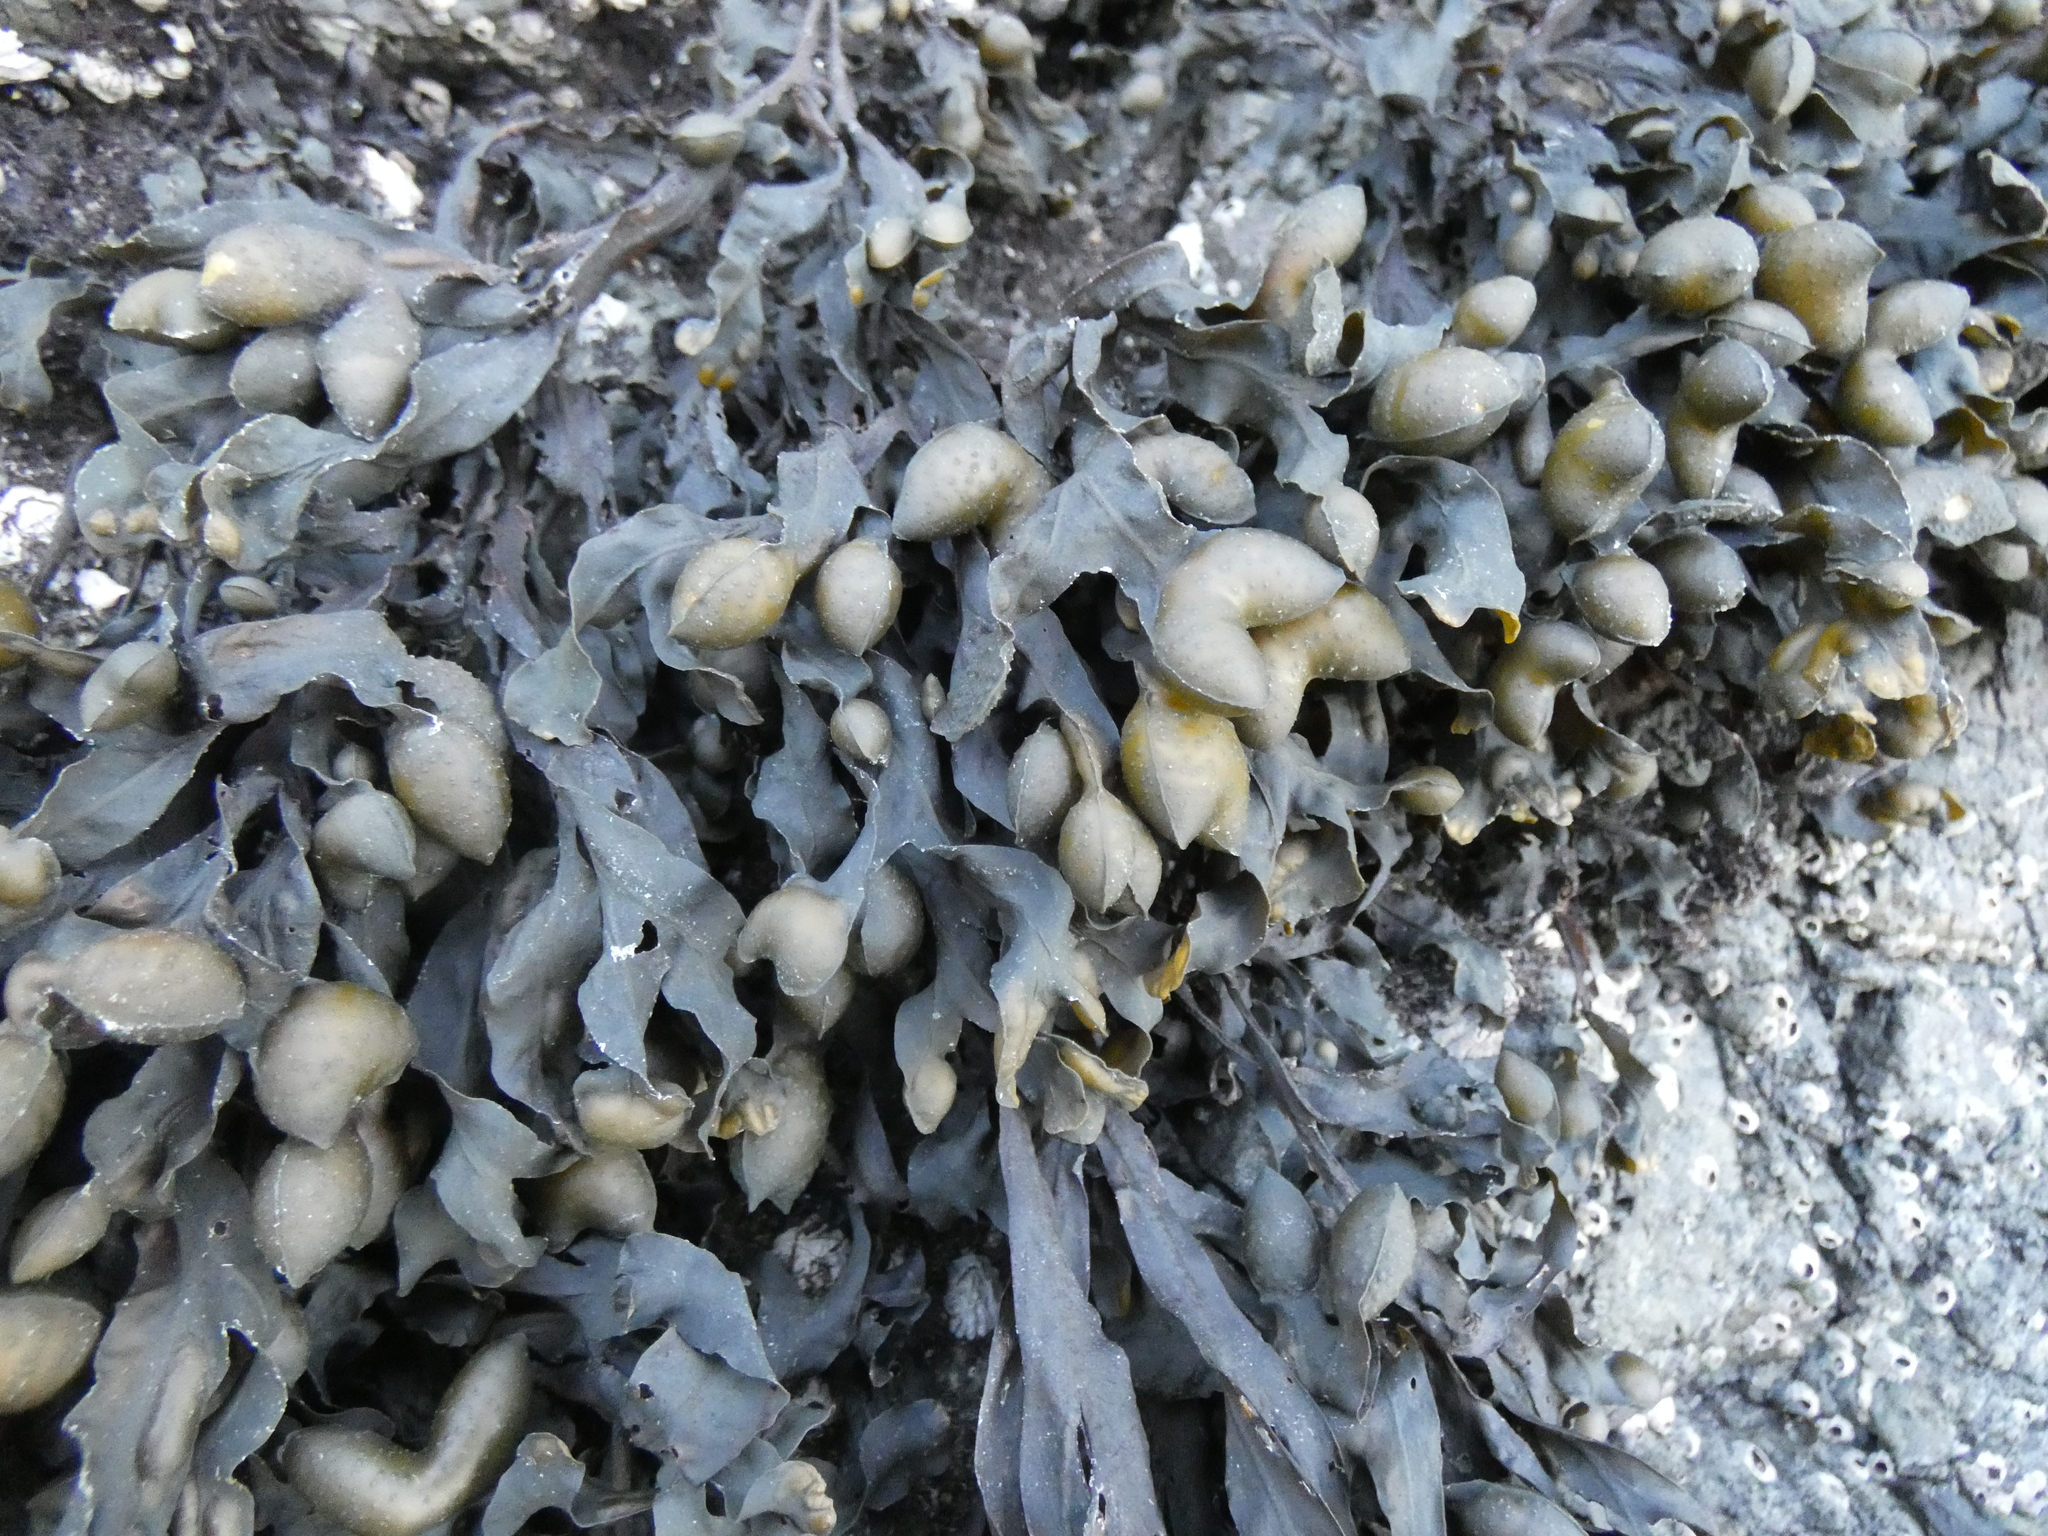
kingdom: Chromista
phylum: Ochrophyta
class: Phaeophyceae
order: Fucales
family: Fucaceae
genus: Fucus
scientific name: Fucus distichus
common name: Rockweed
